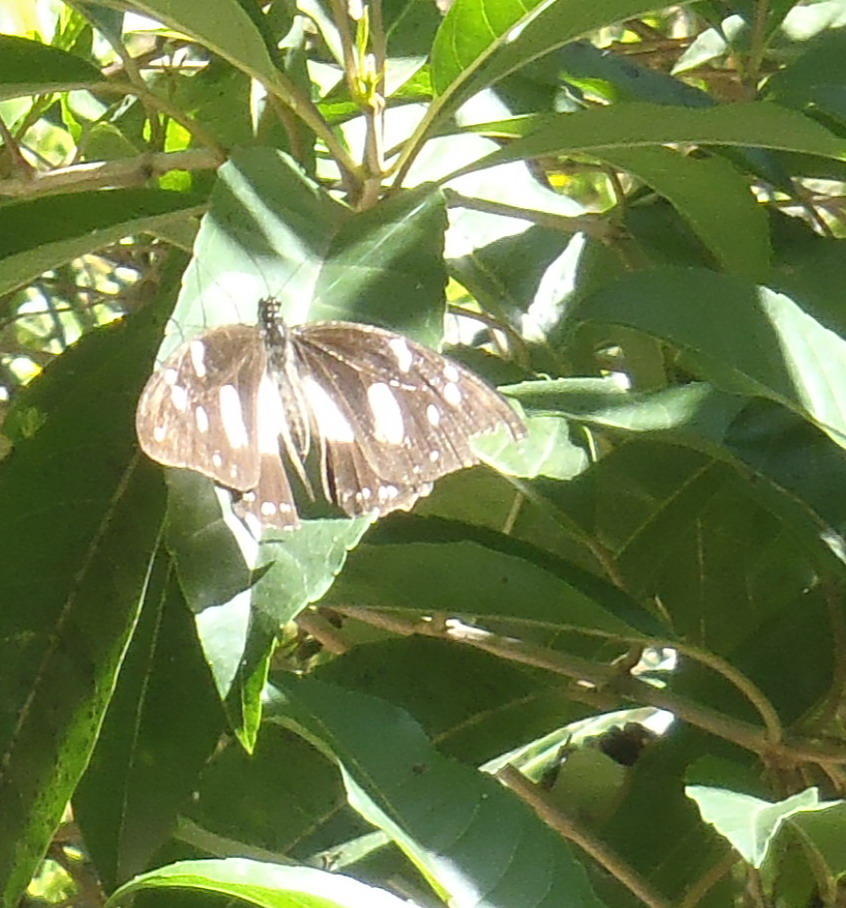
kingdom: Animalia
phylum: Arthropoda
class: Insecta
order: Lepidoptera
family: Papilionidae
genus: Papilio
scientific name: Papilio dardanus
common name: Flying handkerchief
